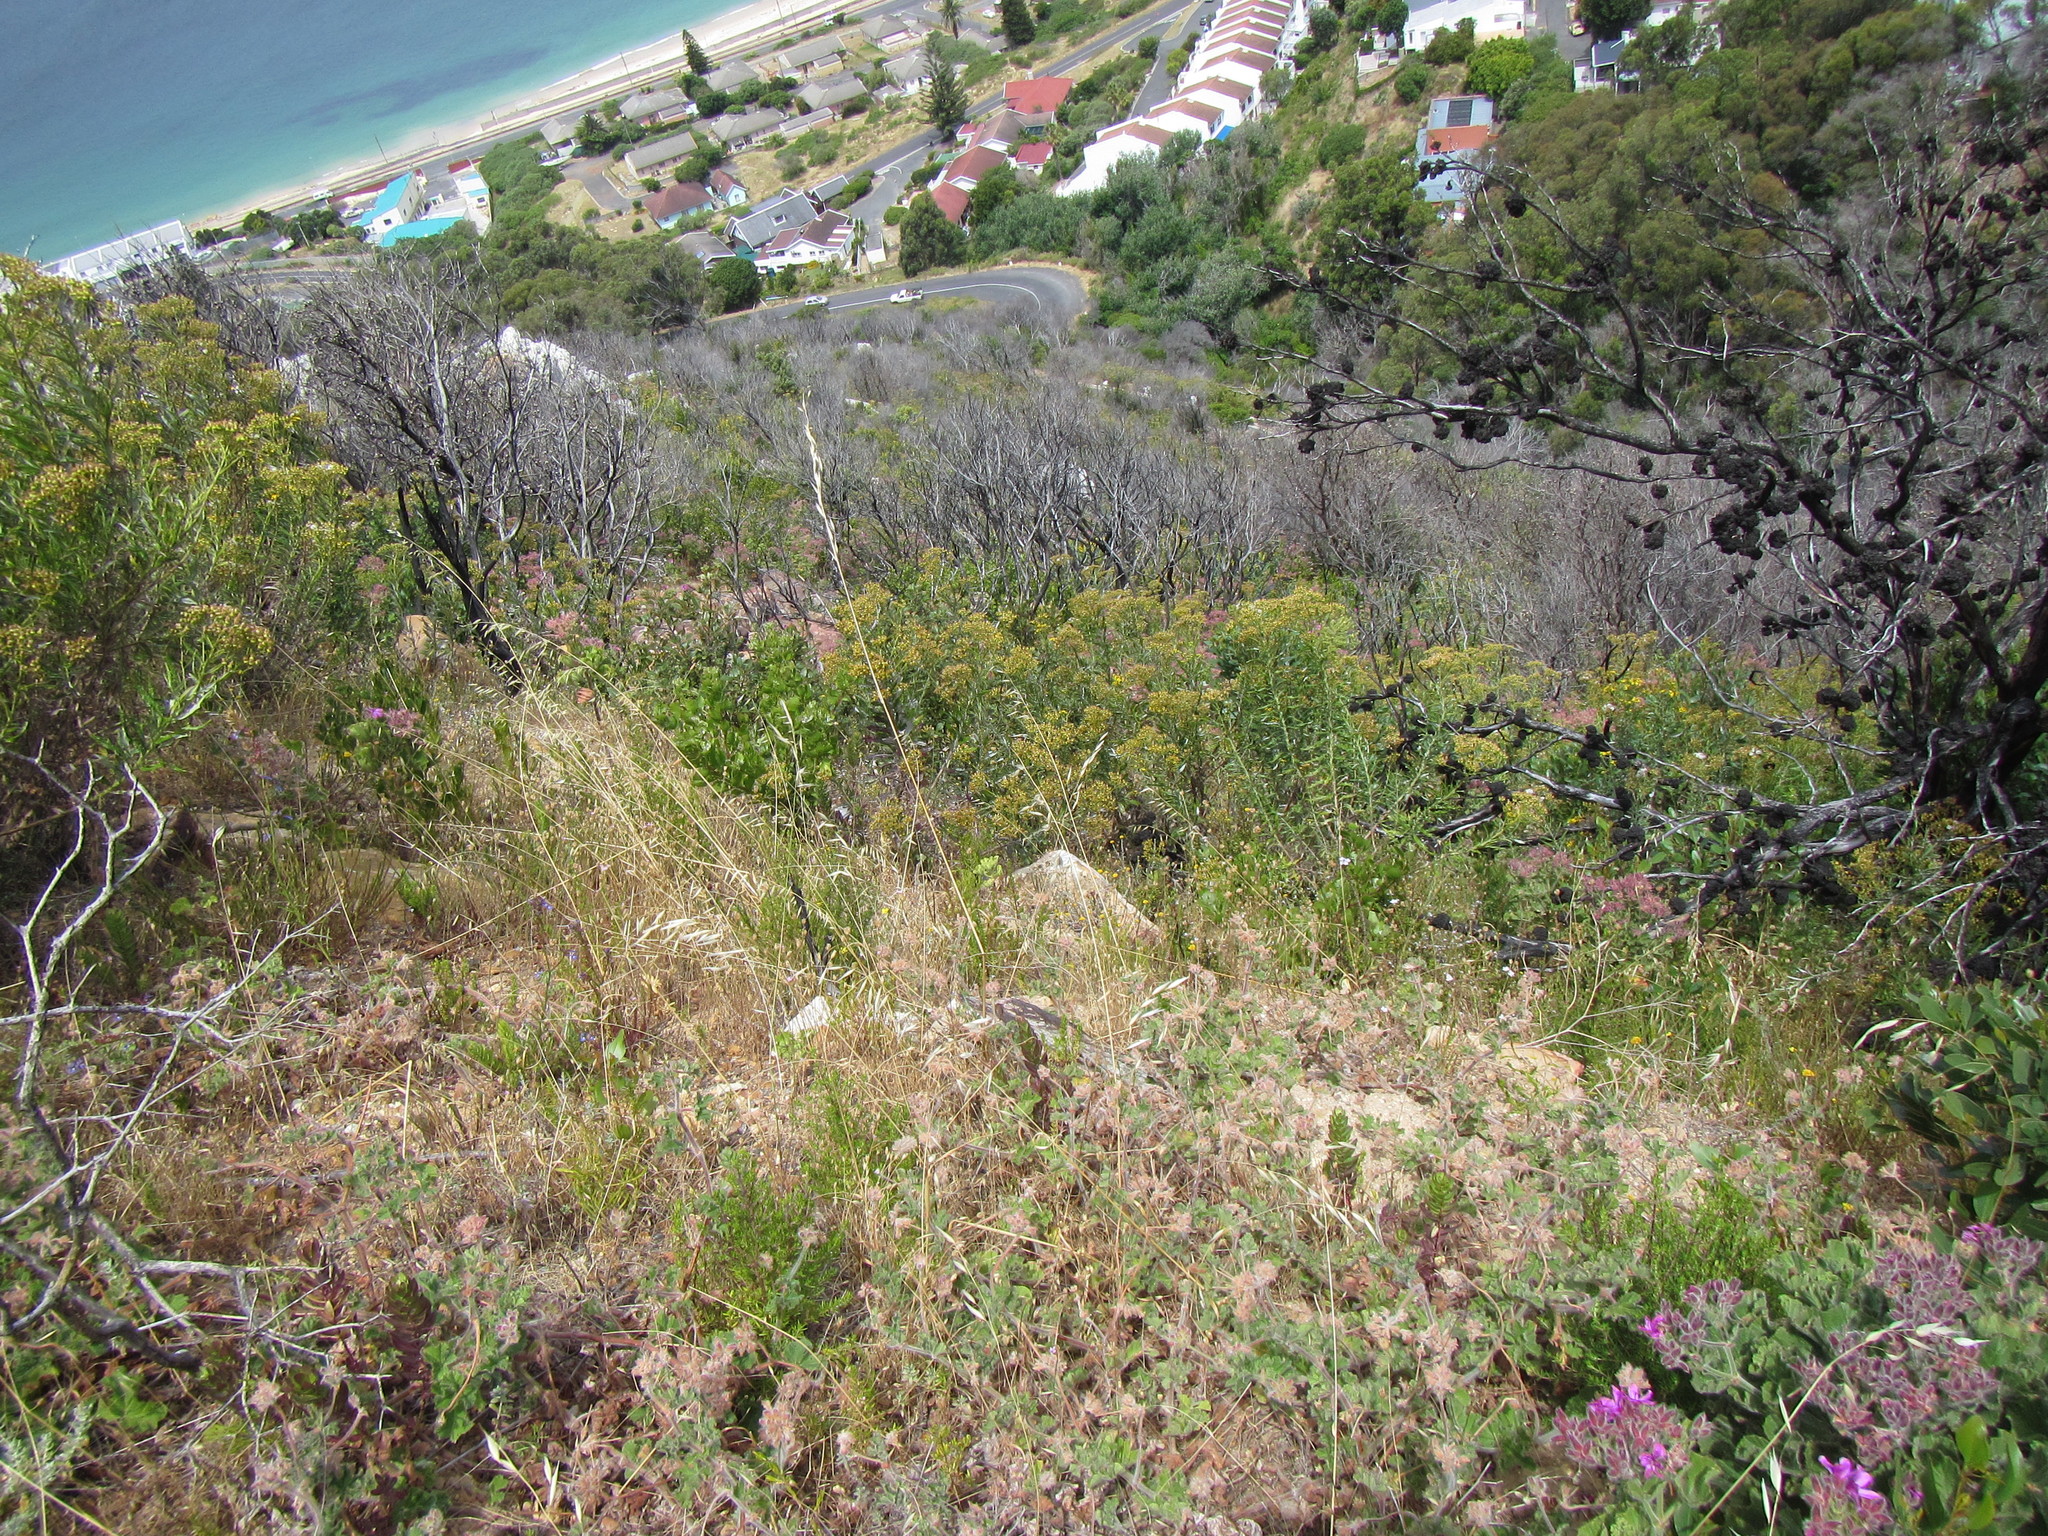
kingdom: Plantae
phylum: Tracheophyta
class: Magnoliopsida
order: Asterales
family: Asteraceae
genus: Senecio
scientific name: Senecio pterophorus
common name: Shoddy ragwort
